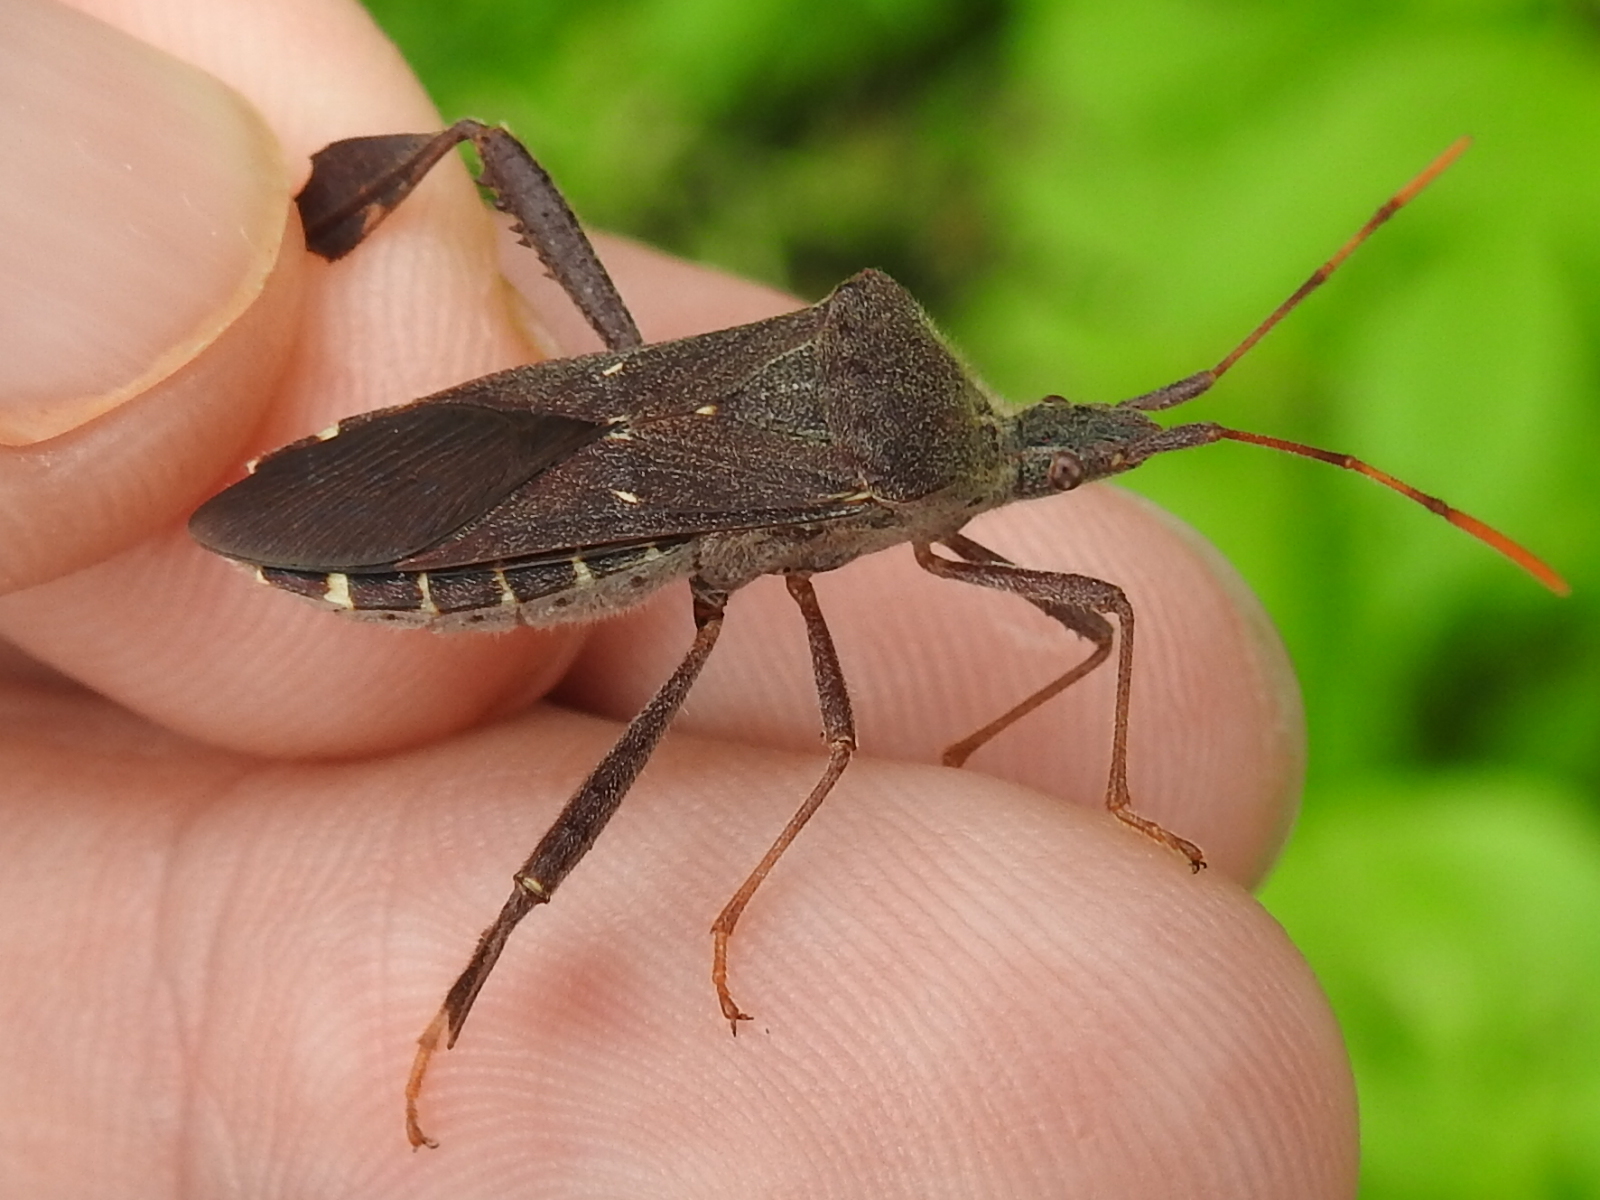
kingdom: Animalia
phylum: Arthropoda
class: Insecta
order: Hemiptera
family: Coreidae
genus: Leptoglossus
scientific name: Leptoglossus oppositus
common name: Northern leaf-footed bug
